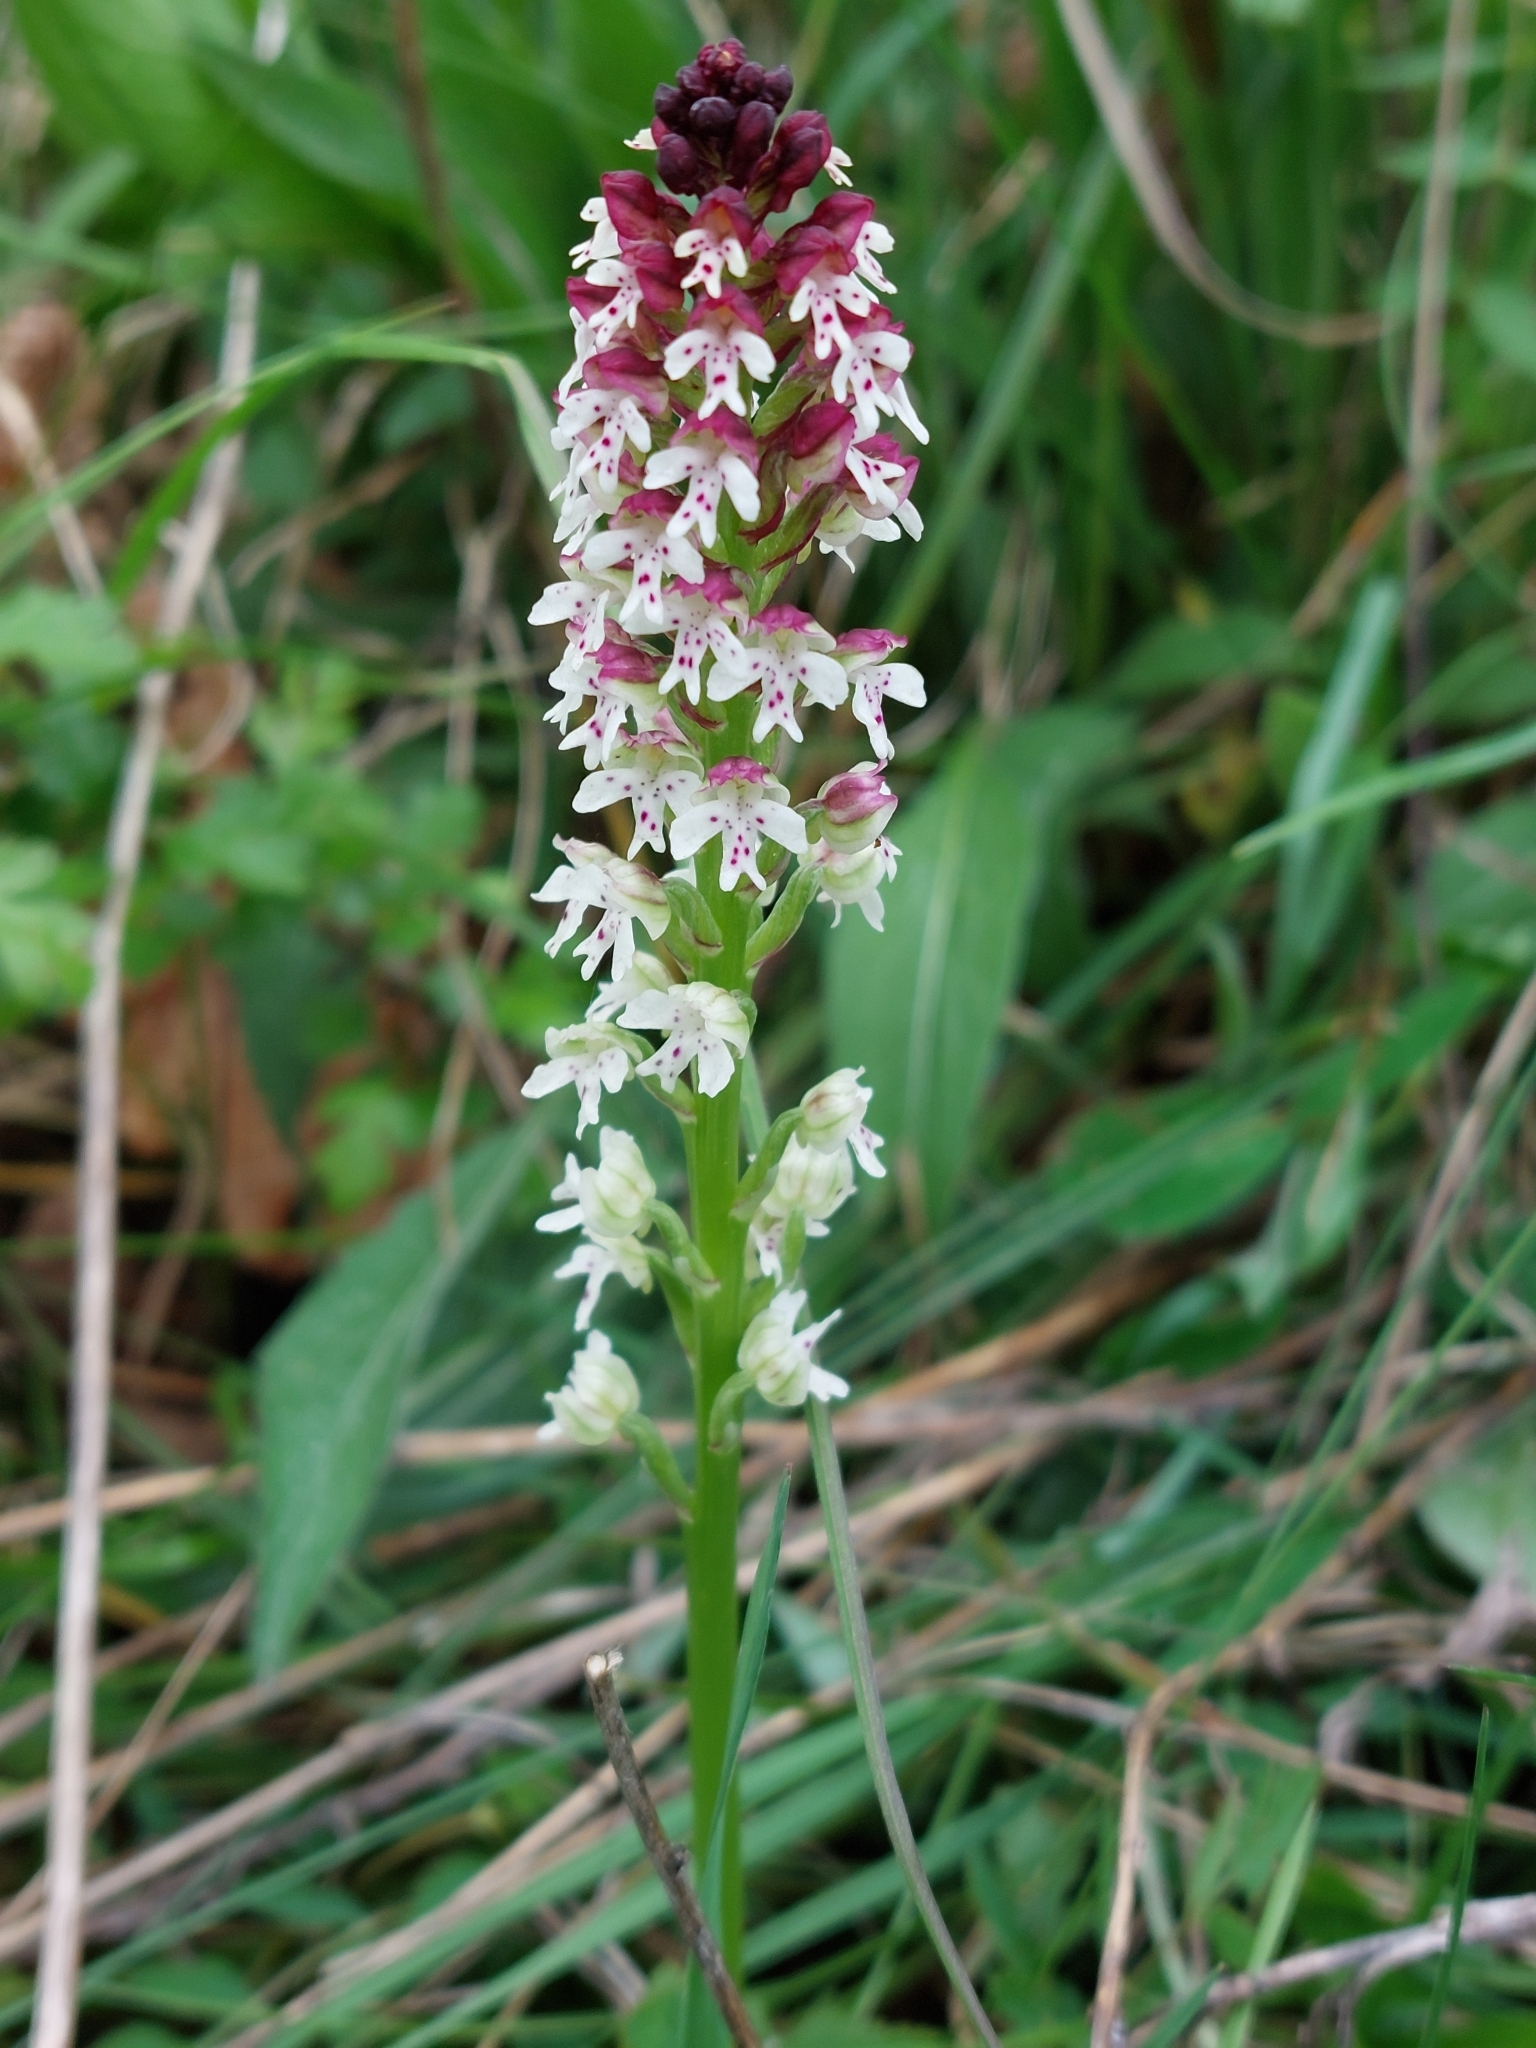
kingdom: Plantae
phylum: Tracheophyta
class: Liliopsida
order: Asparagales
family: Orchidaceae
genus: Neotinea
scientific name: Neotinea ustulata
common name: Burnt orchid
